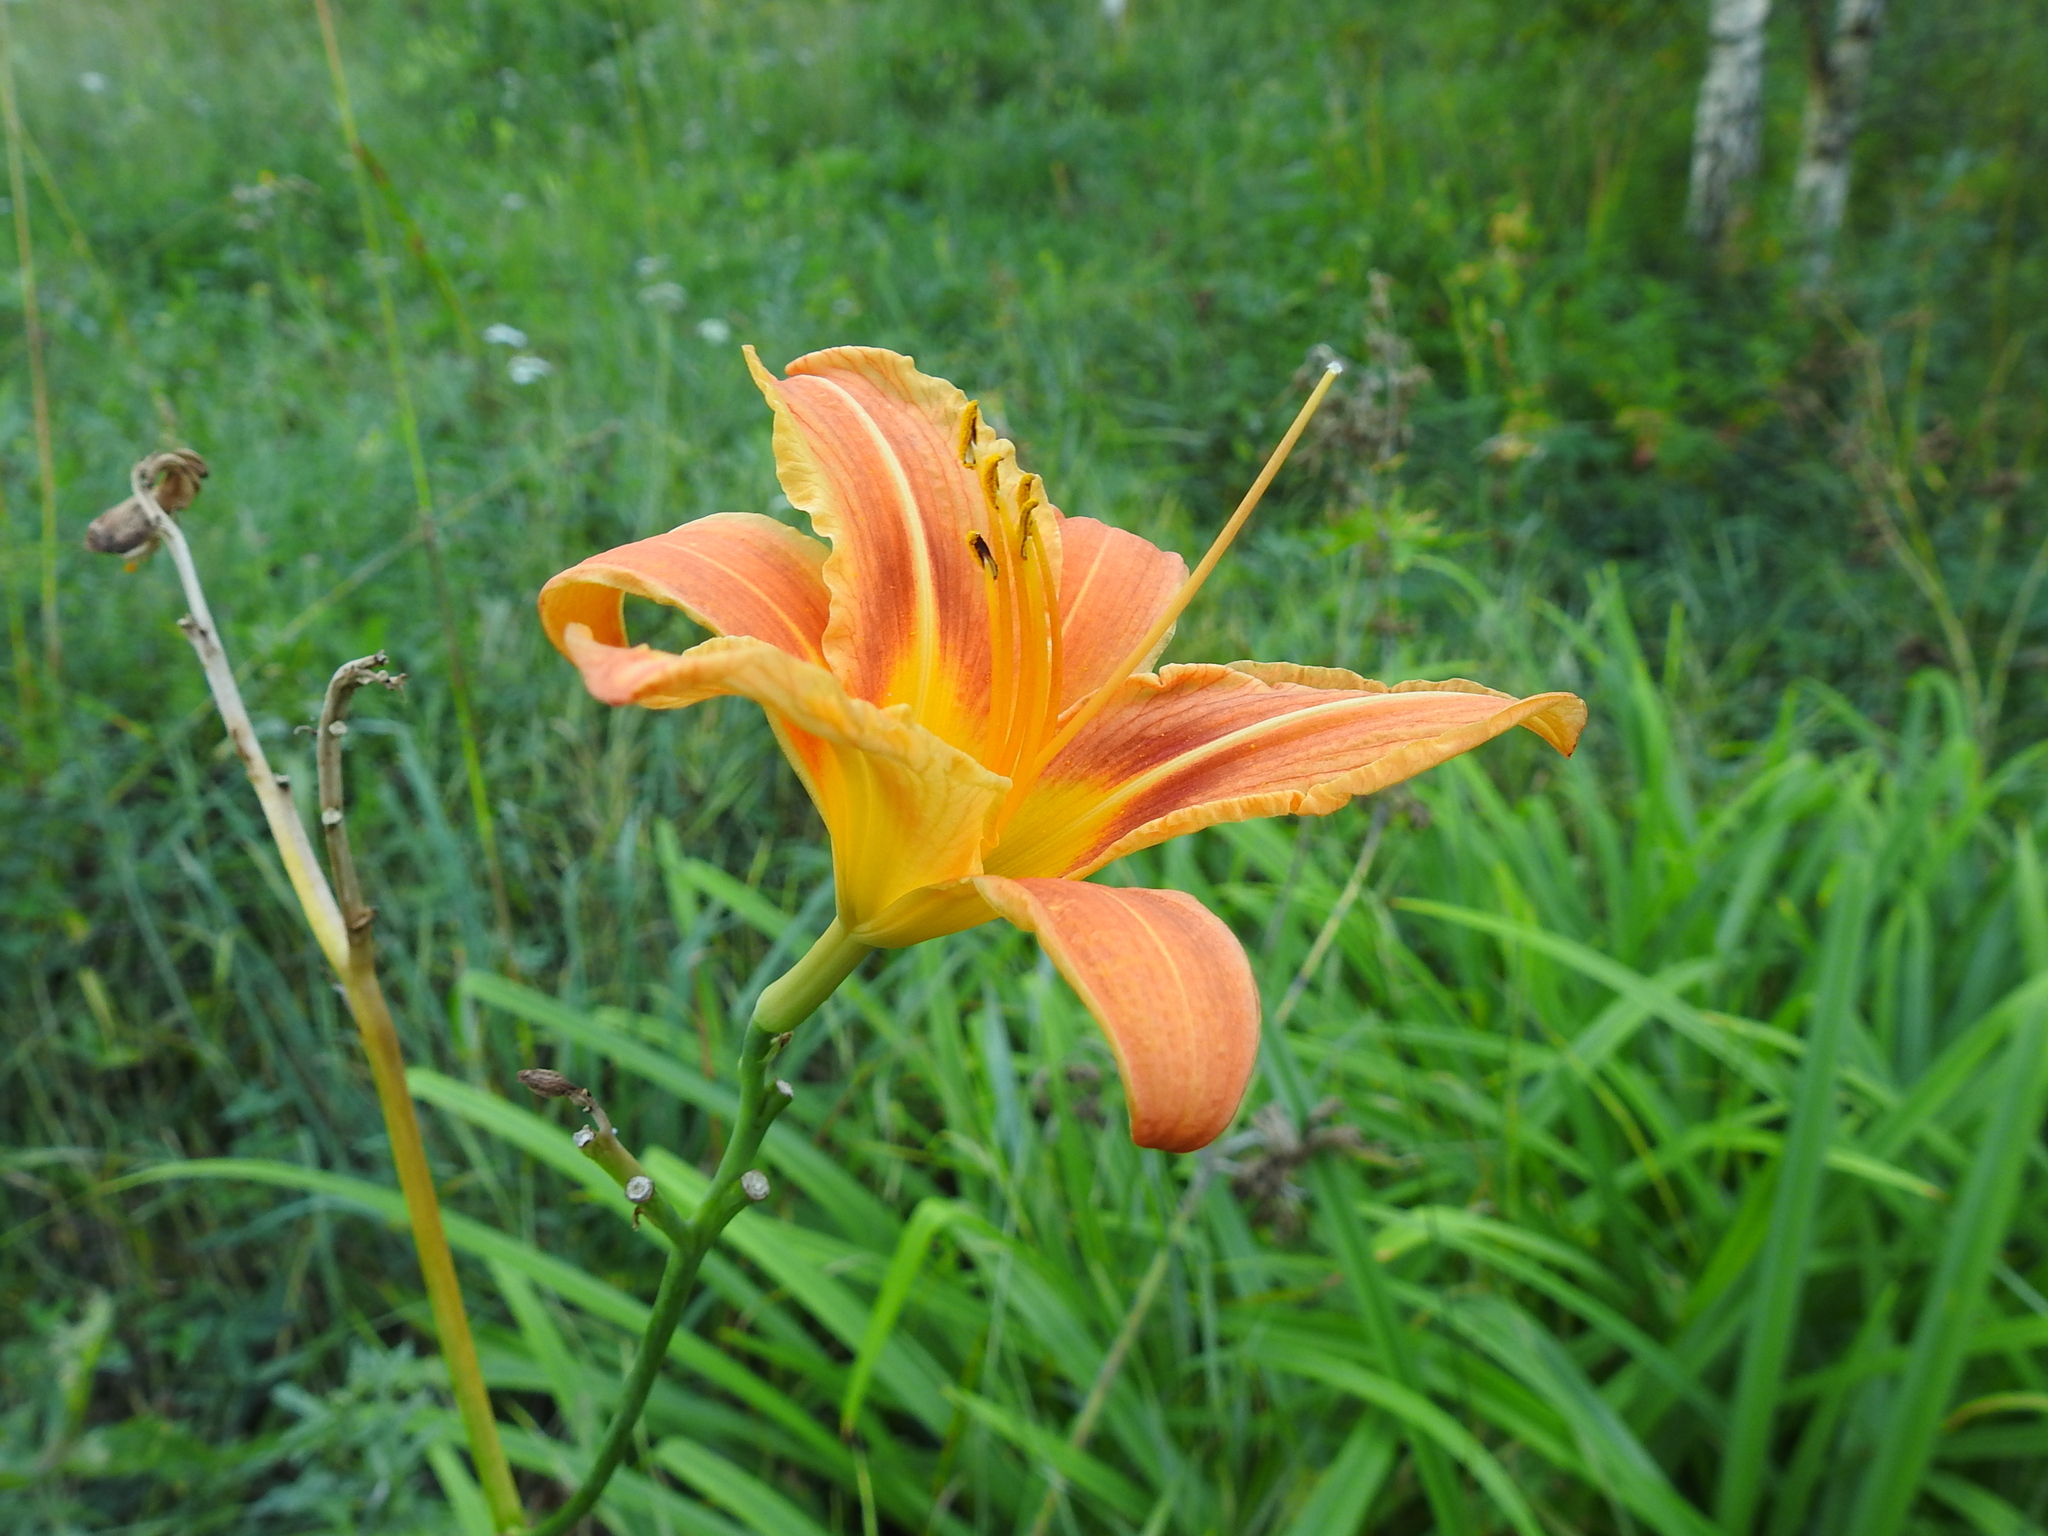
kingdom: Plantae
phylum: Tracheophyta
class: Liliopsida
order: Asparagales
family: Asphodelaceae
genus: Hemerocallis
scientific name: Hemerocallis fulva
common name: Orange day-lily
